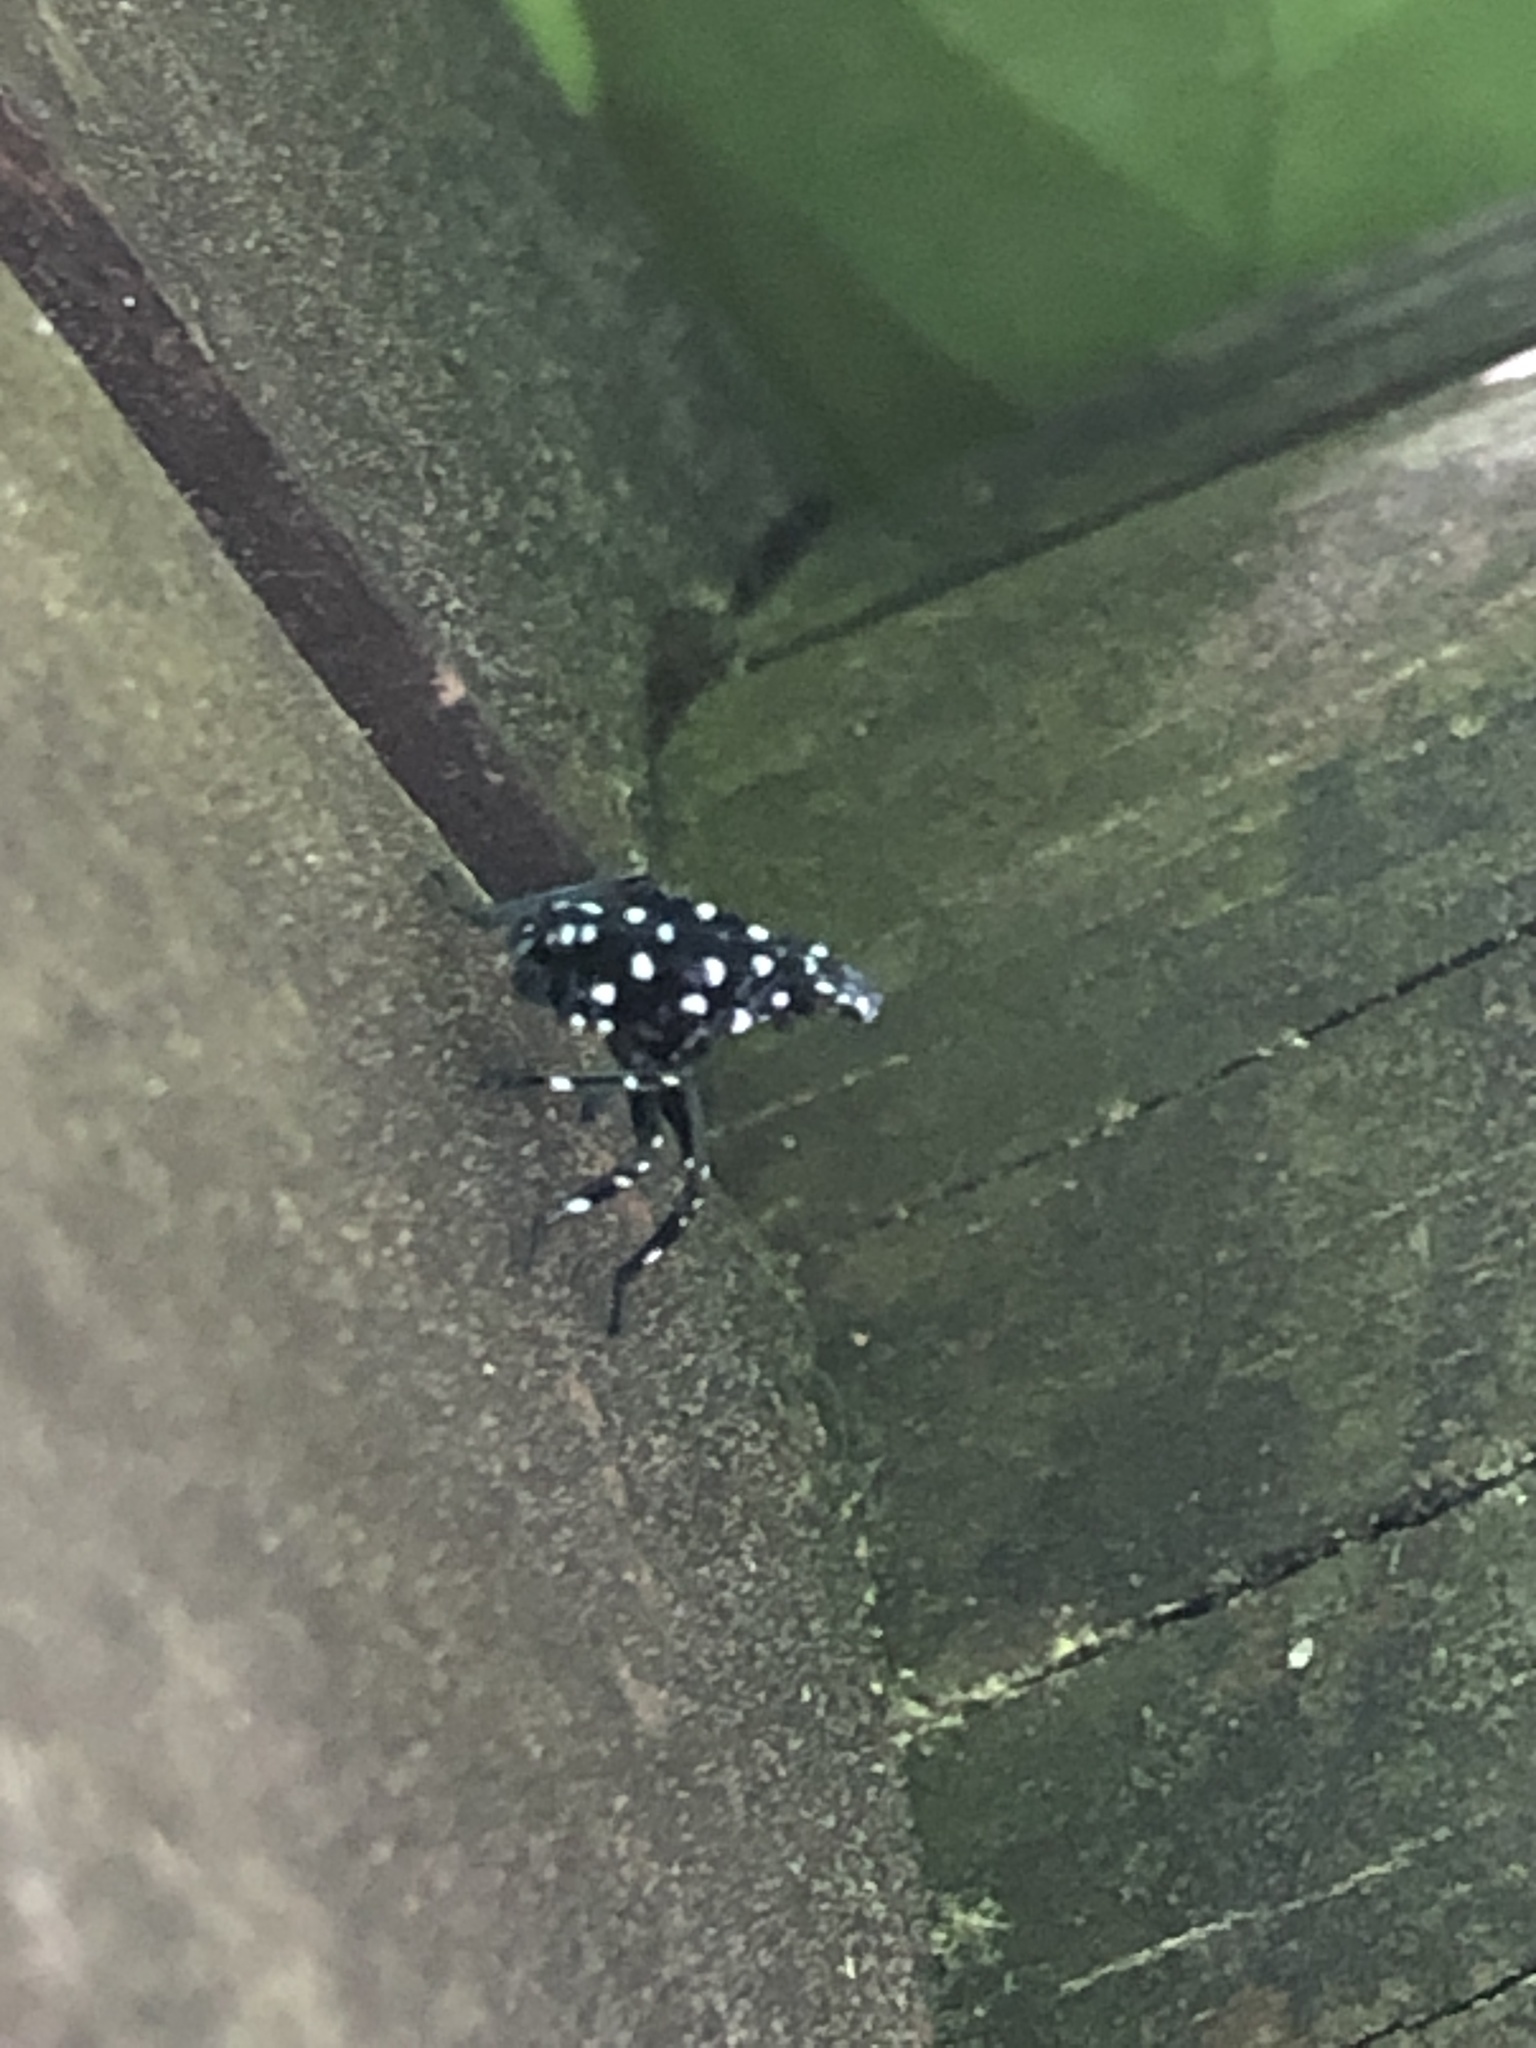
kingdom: Animalia
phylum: Arthropoda
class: Insecta
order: Hemiptera
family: Fulgoridae
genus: Lycorma
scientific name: Lycorma delicatula
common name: Spotted lanternfly
